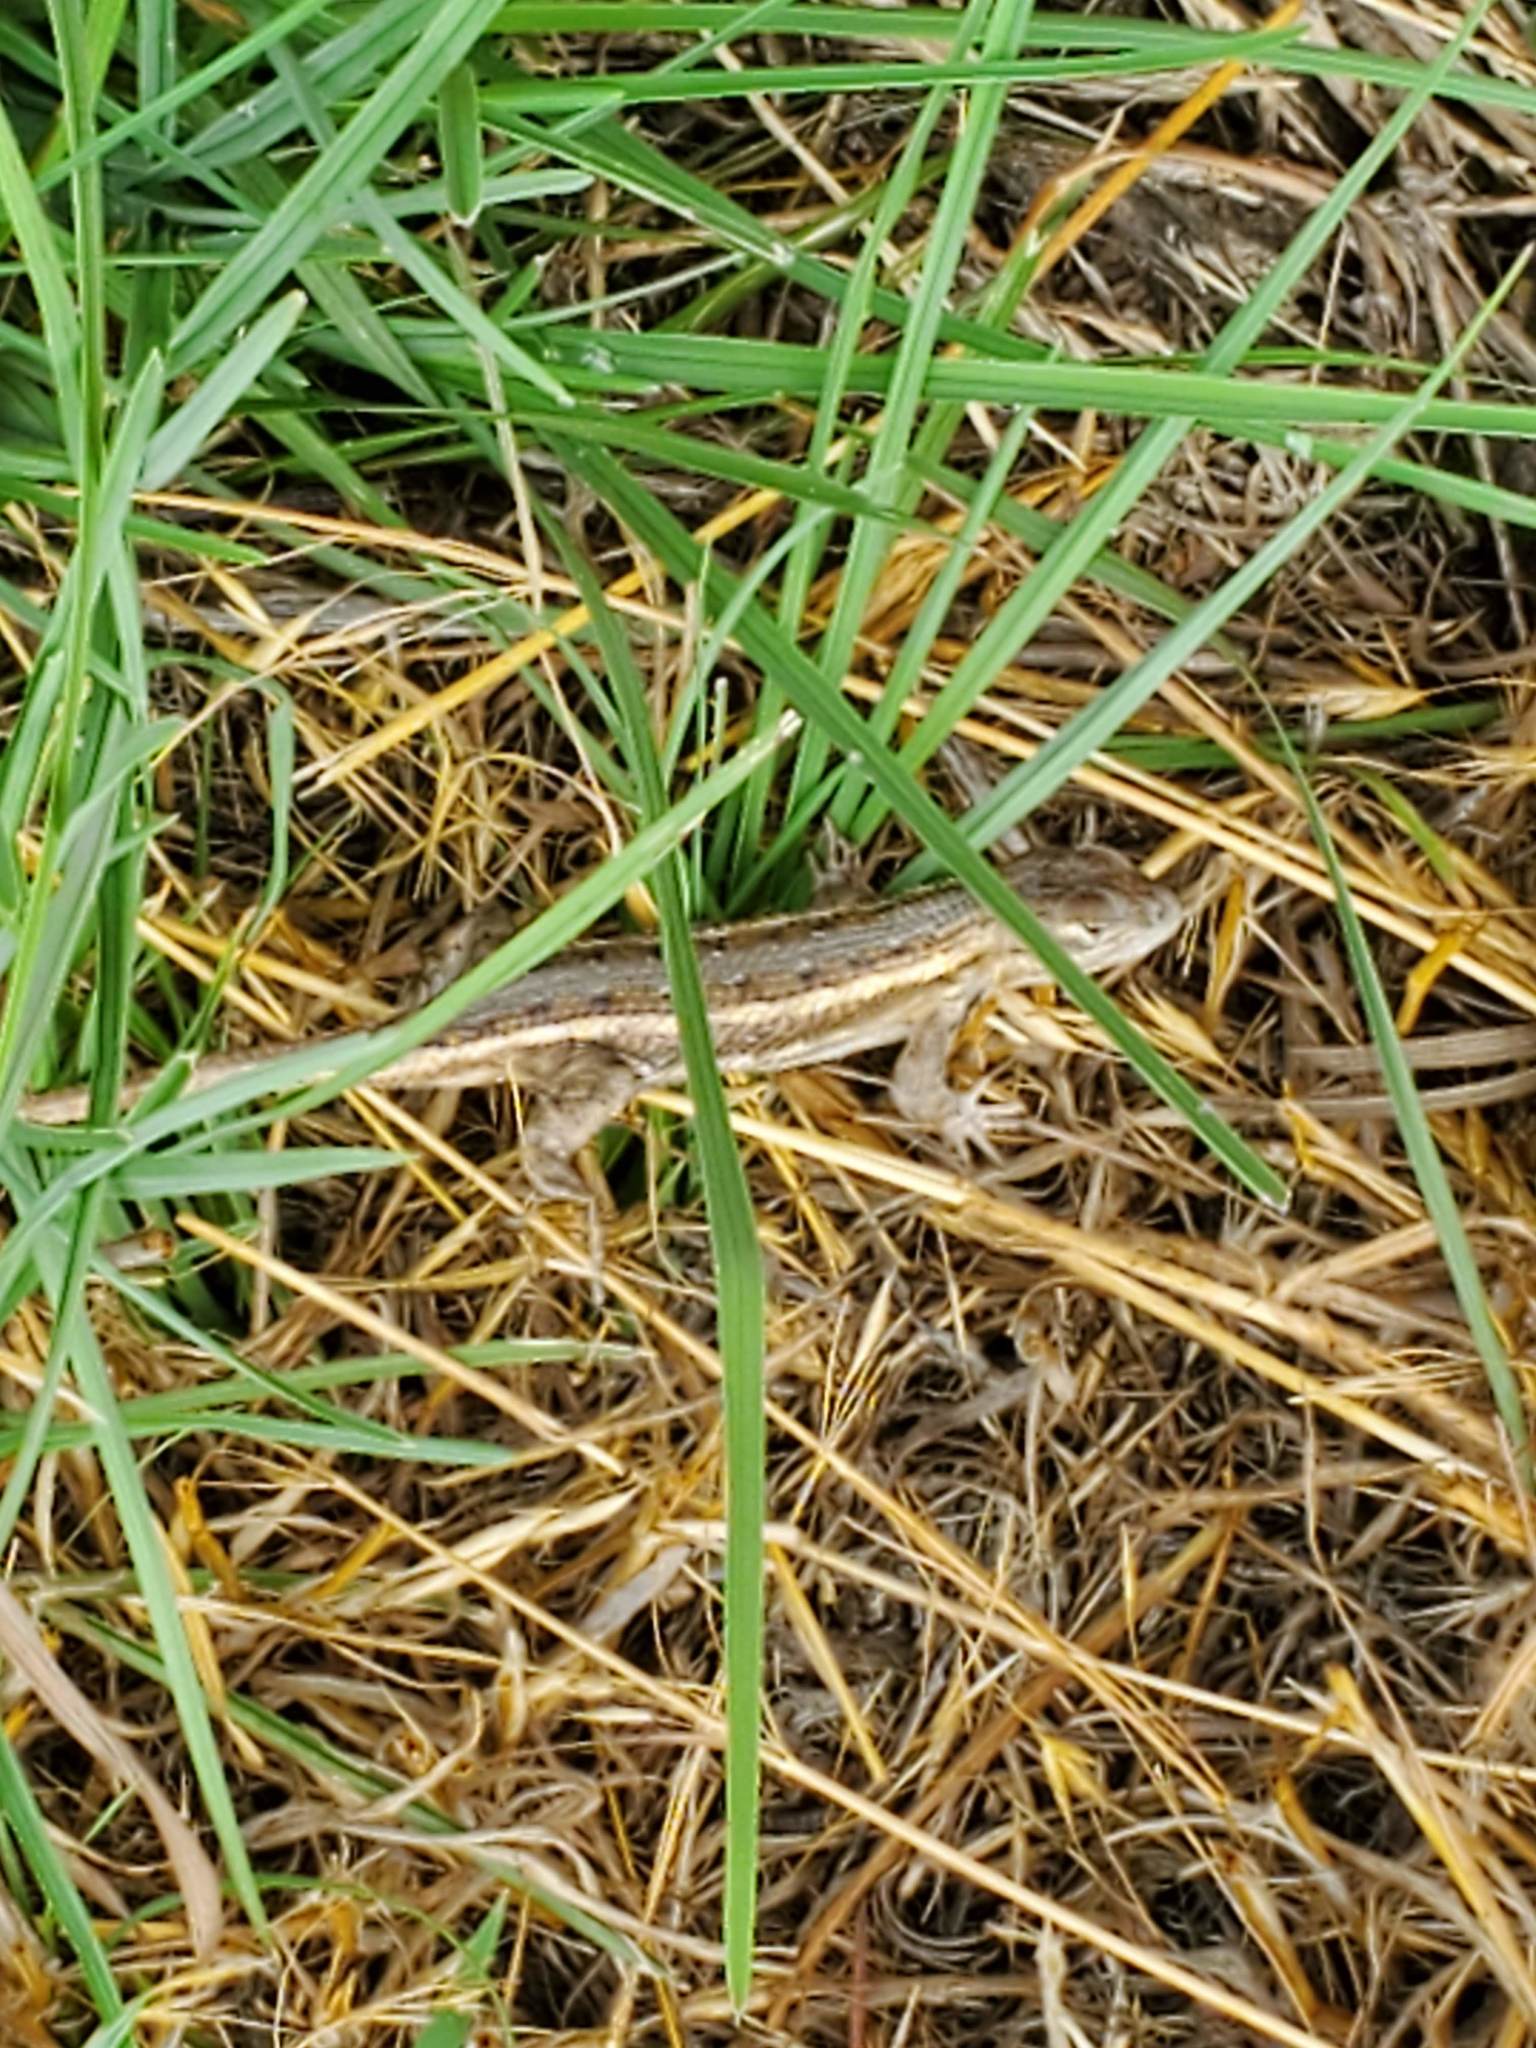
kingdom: Animalia
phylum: Chordata
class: Squamata
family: Phrynosomatidae
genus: Sceloporus
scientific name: Sceloporus consobrinus
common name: Southern prairie lizard
